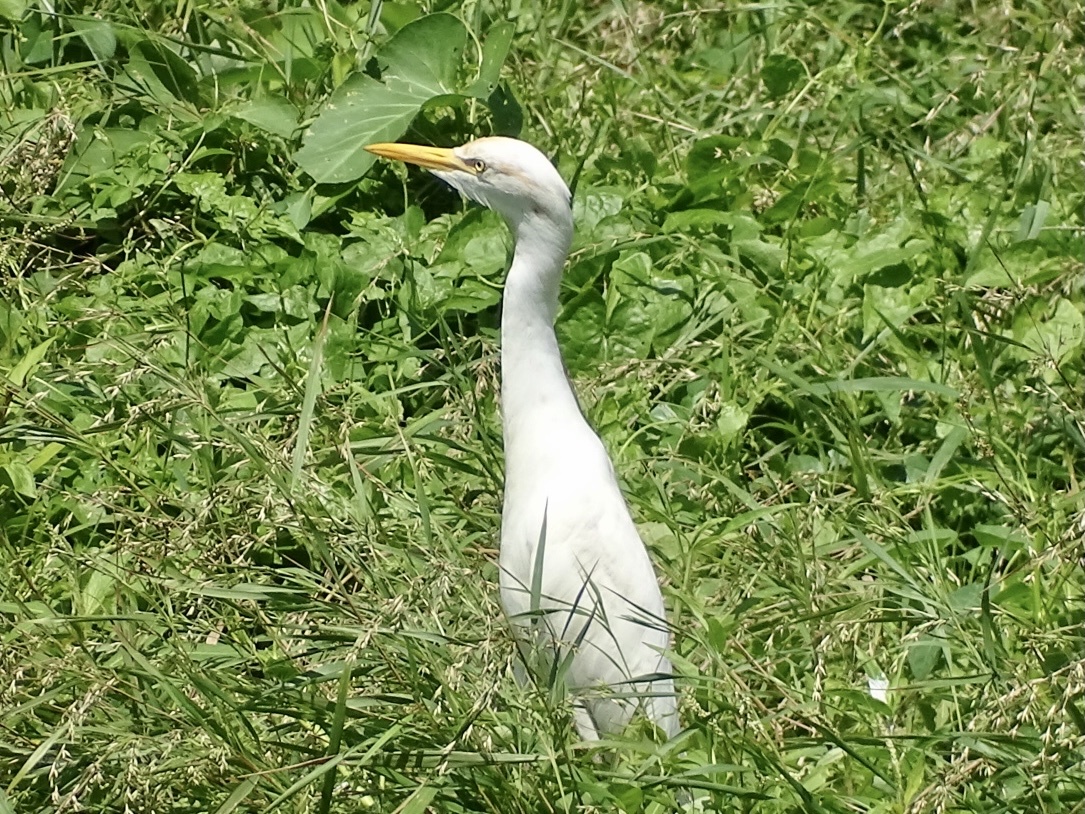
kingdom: Animalia
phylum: Chordata
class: Aves
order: Pelecaniformes
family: Ardeidae
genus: Bubulcus
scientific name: Bubulcus coromandus
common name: Eastern cattle egret
